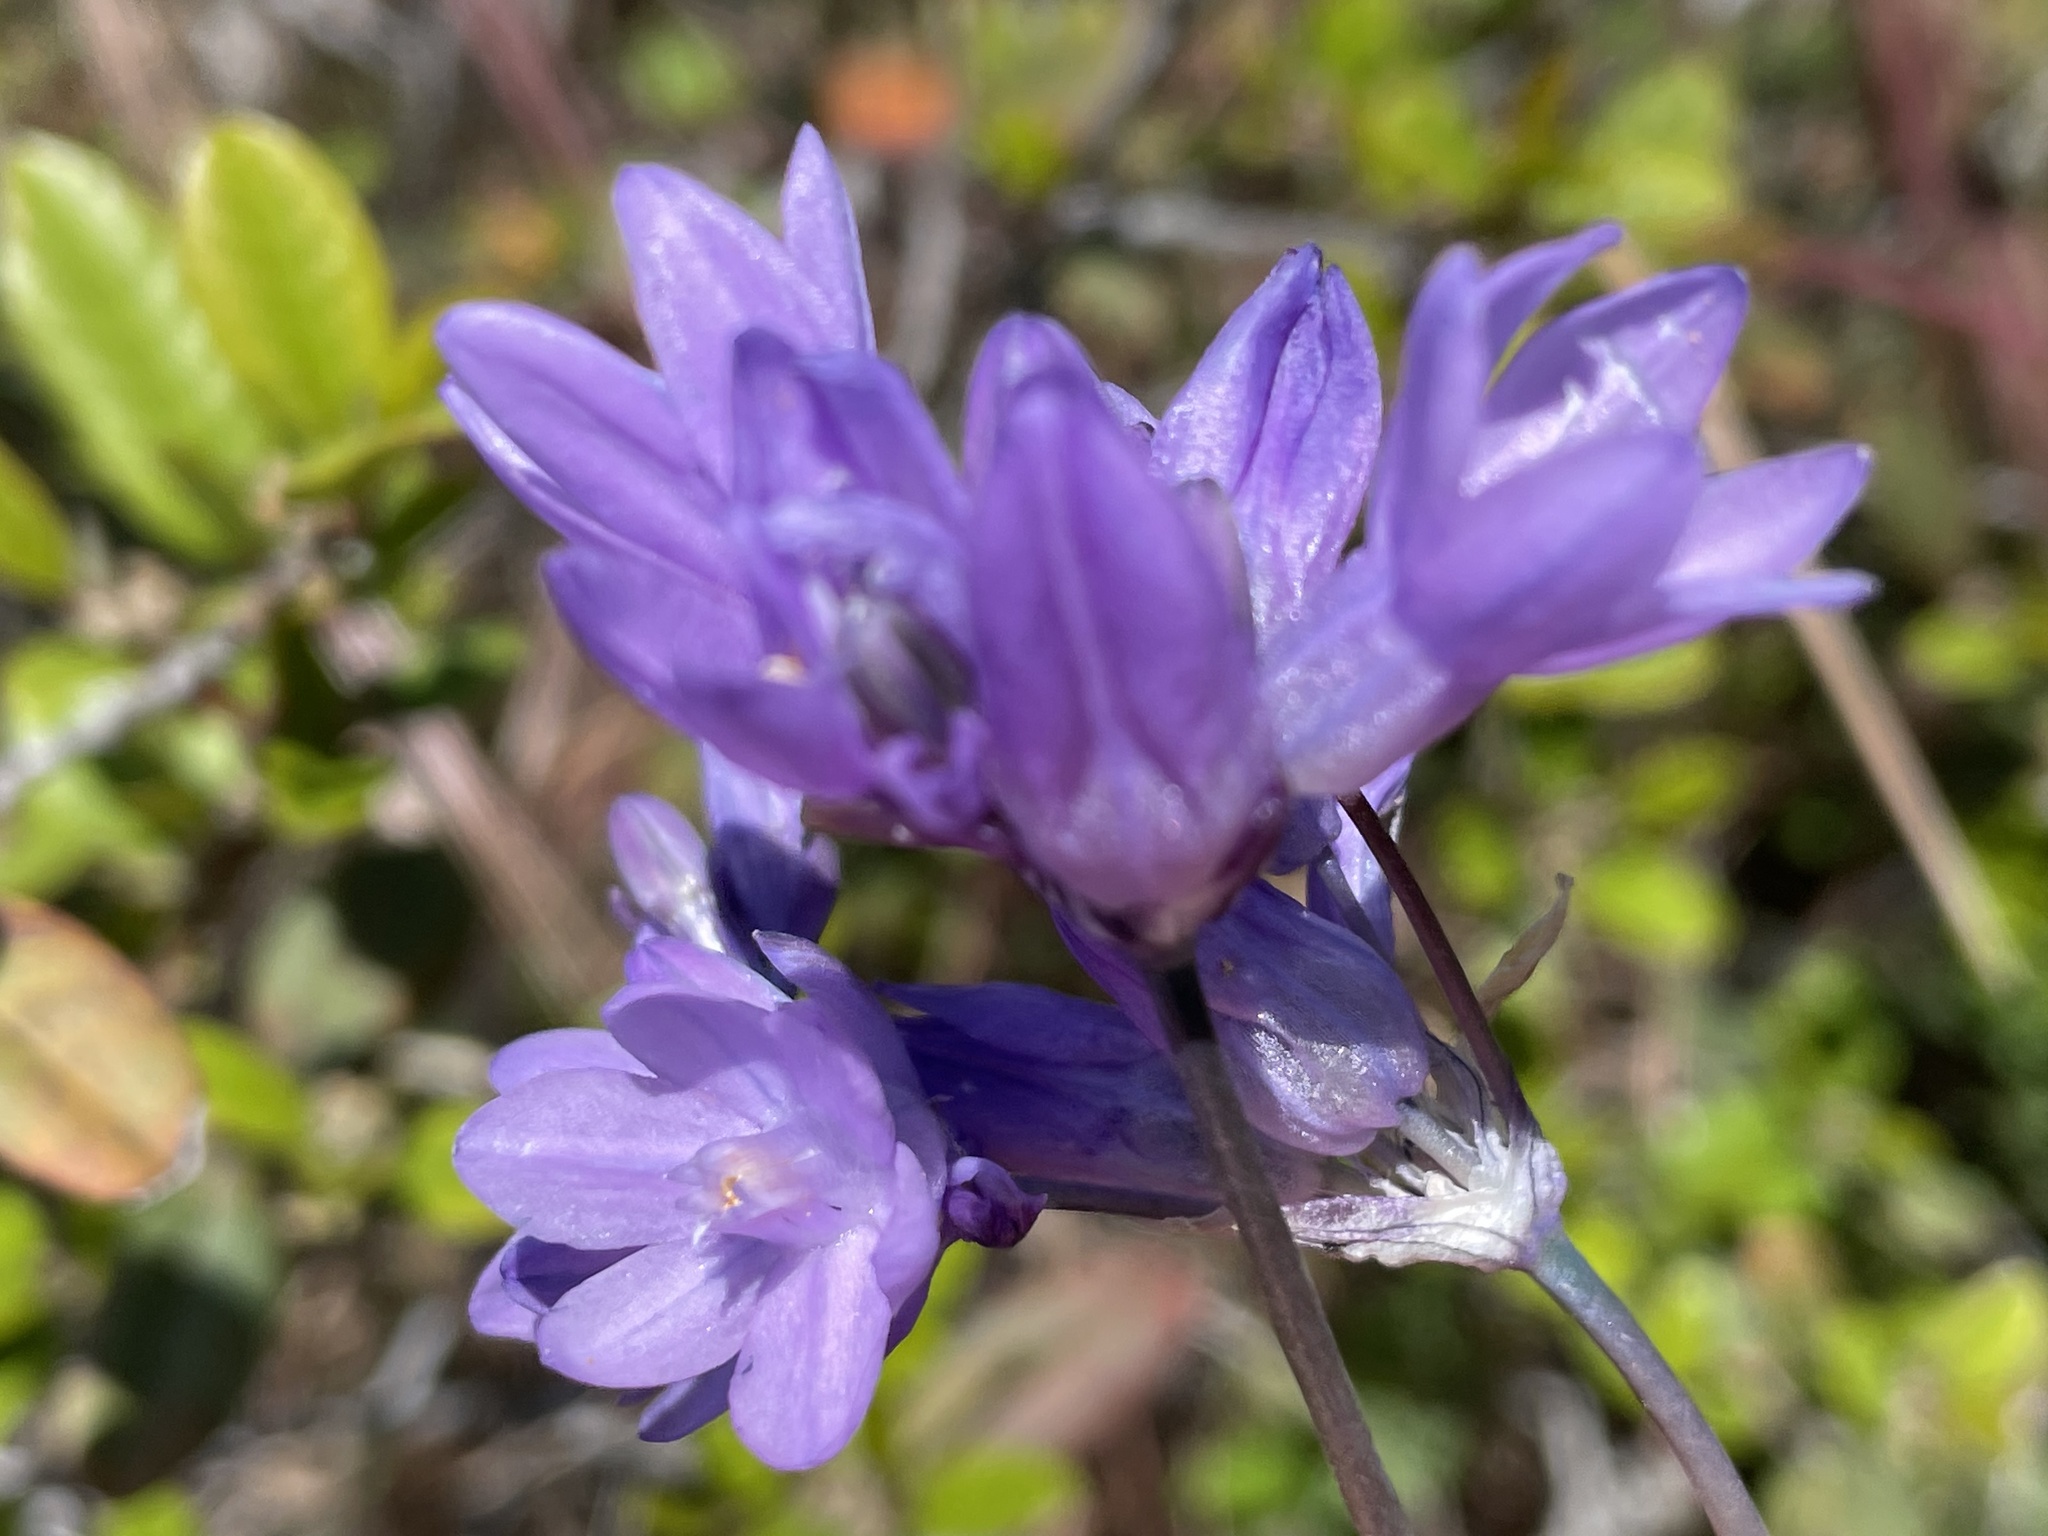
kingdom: Plantae
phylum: Tracheophyta
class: Liliopsida
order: Asparagales
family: Asparagaceae
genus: Dipterostemon
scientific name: Dipterostemon capitatus
